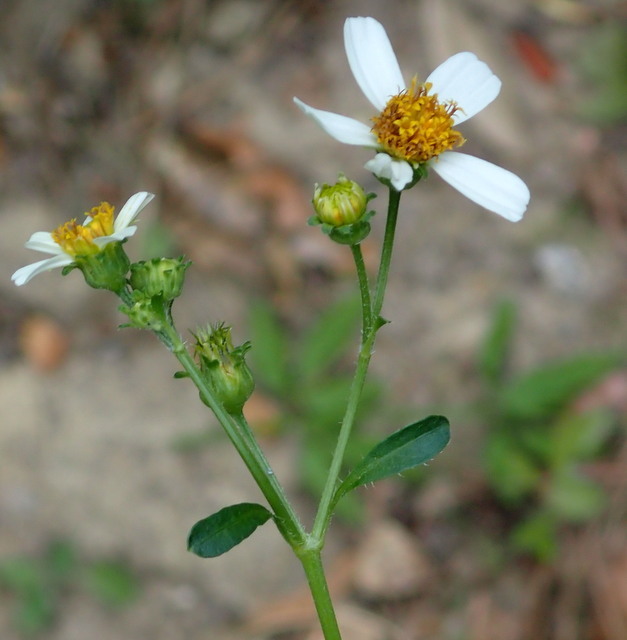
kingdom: Plantae
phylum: Tracheophyta
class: Magnoliopsida
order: Asterales
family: Asteraceae
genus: Bidens
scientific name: Bidens alba
